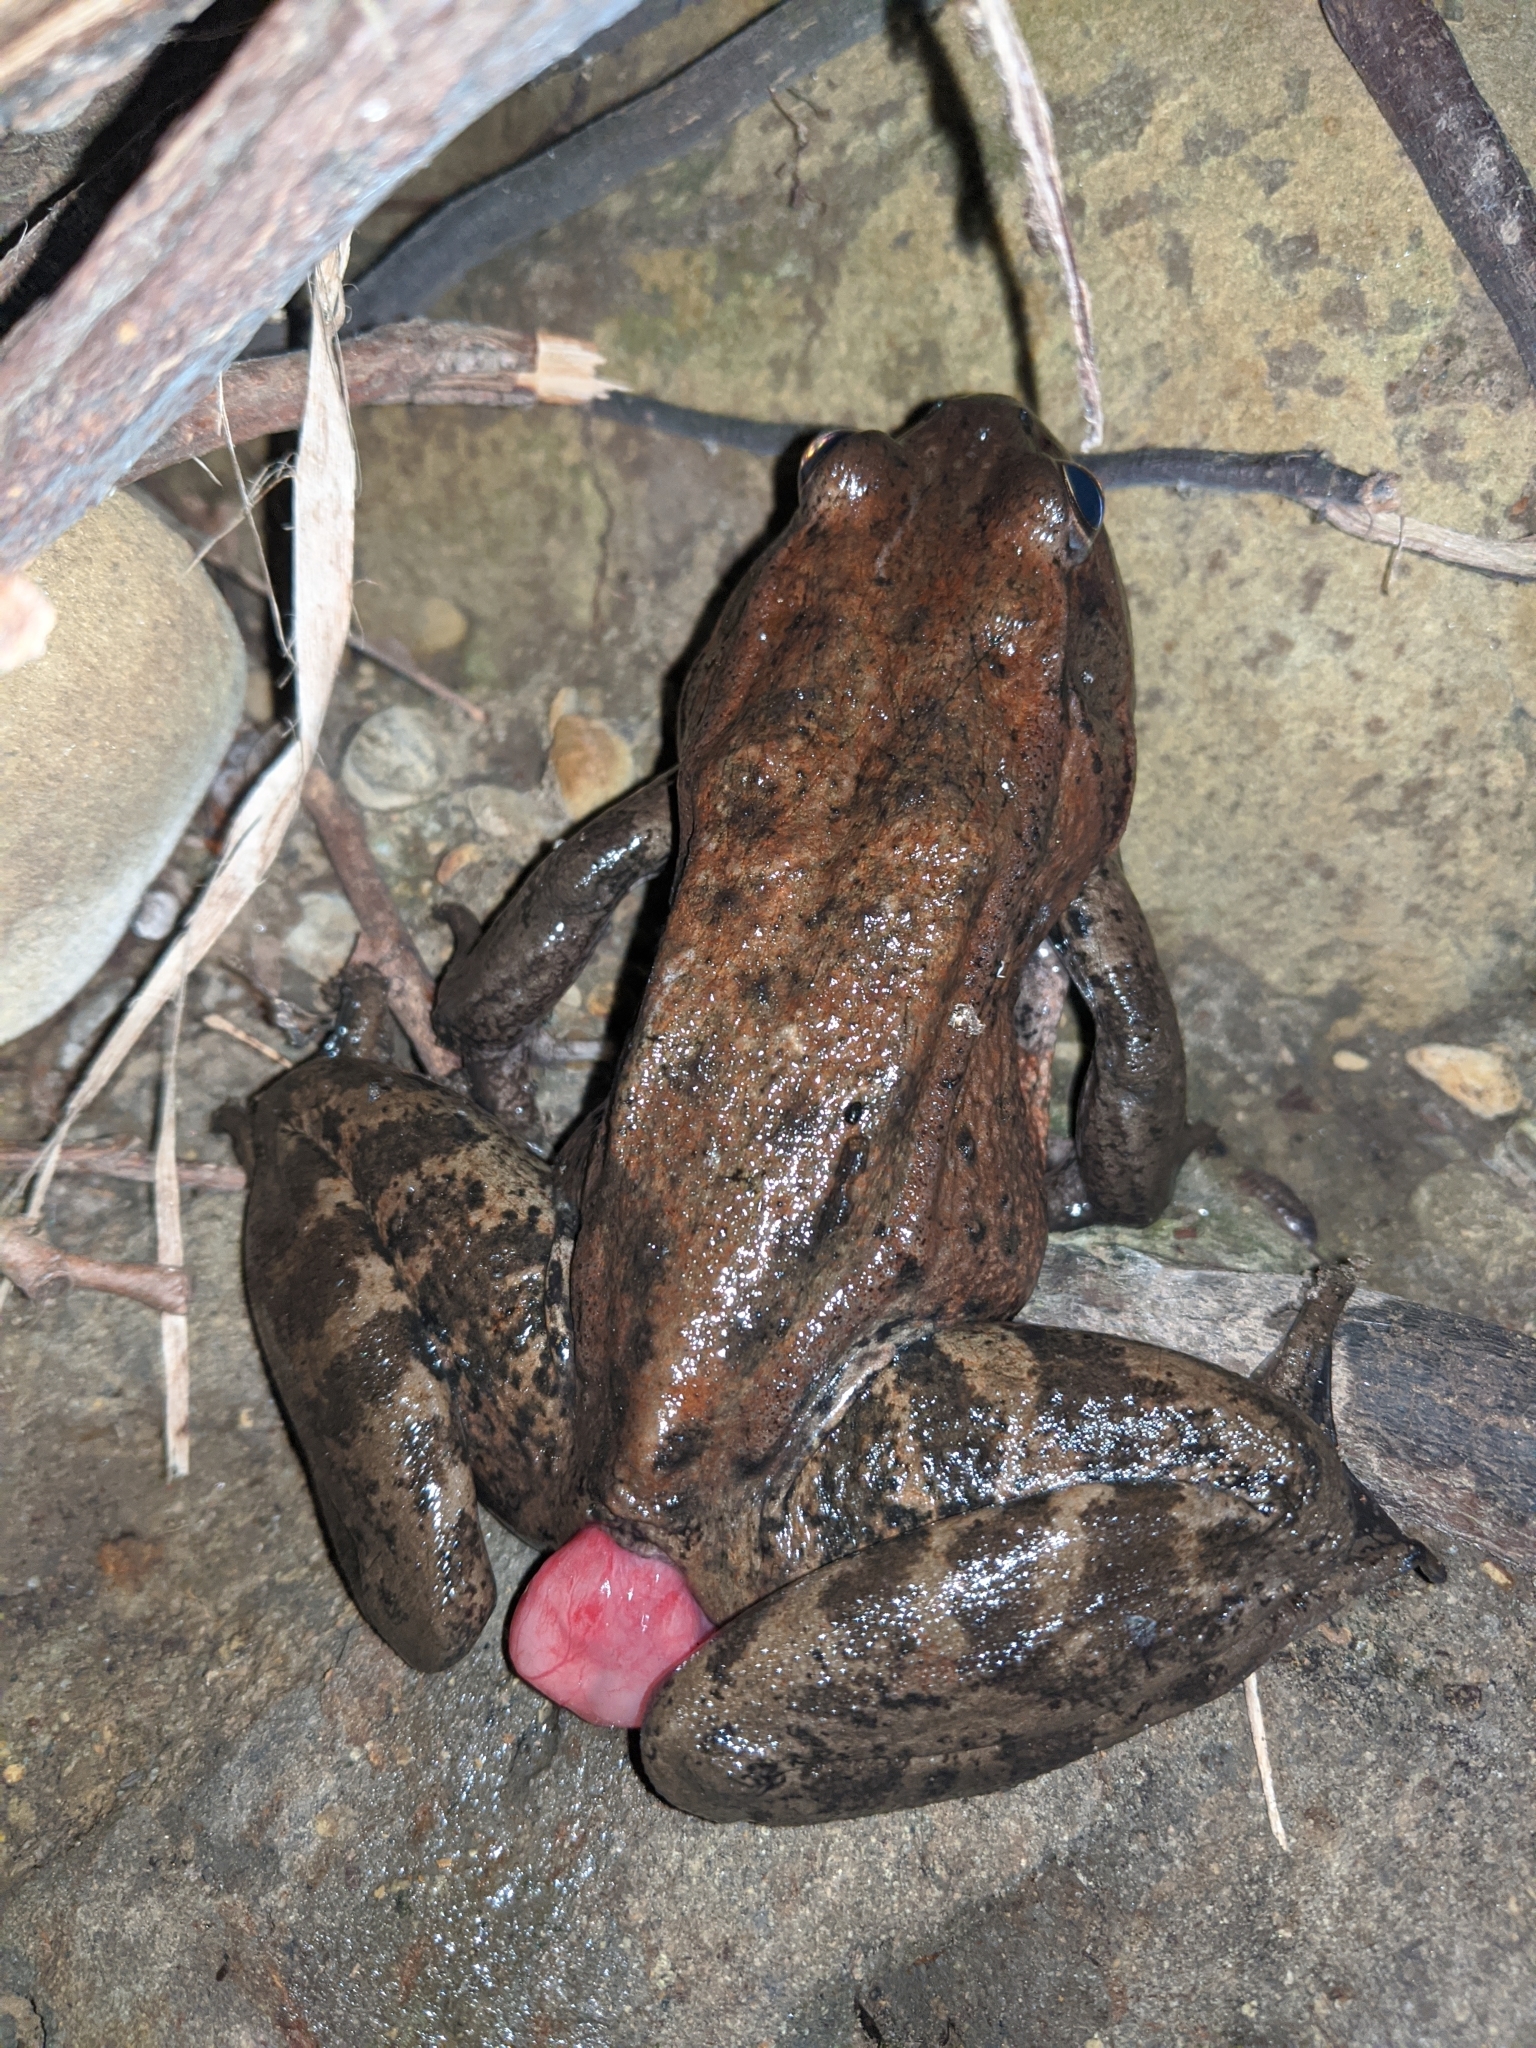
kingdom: Animalia
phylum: Chordata
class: Amphibia
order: Anura
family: Ranidae
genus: Rana
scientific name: Rana draytonii
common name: California red-legged frog
